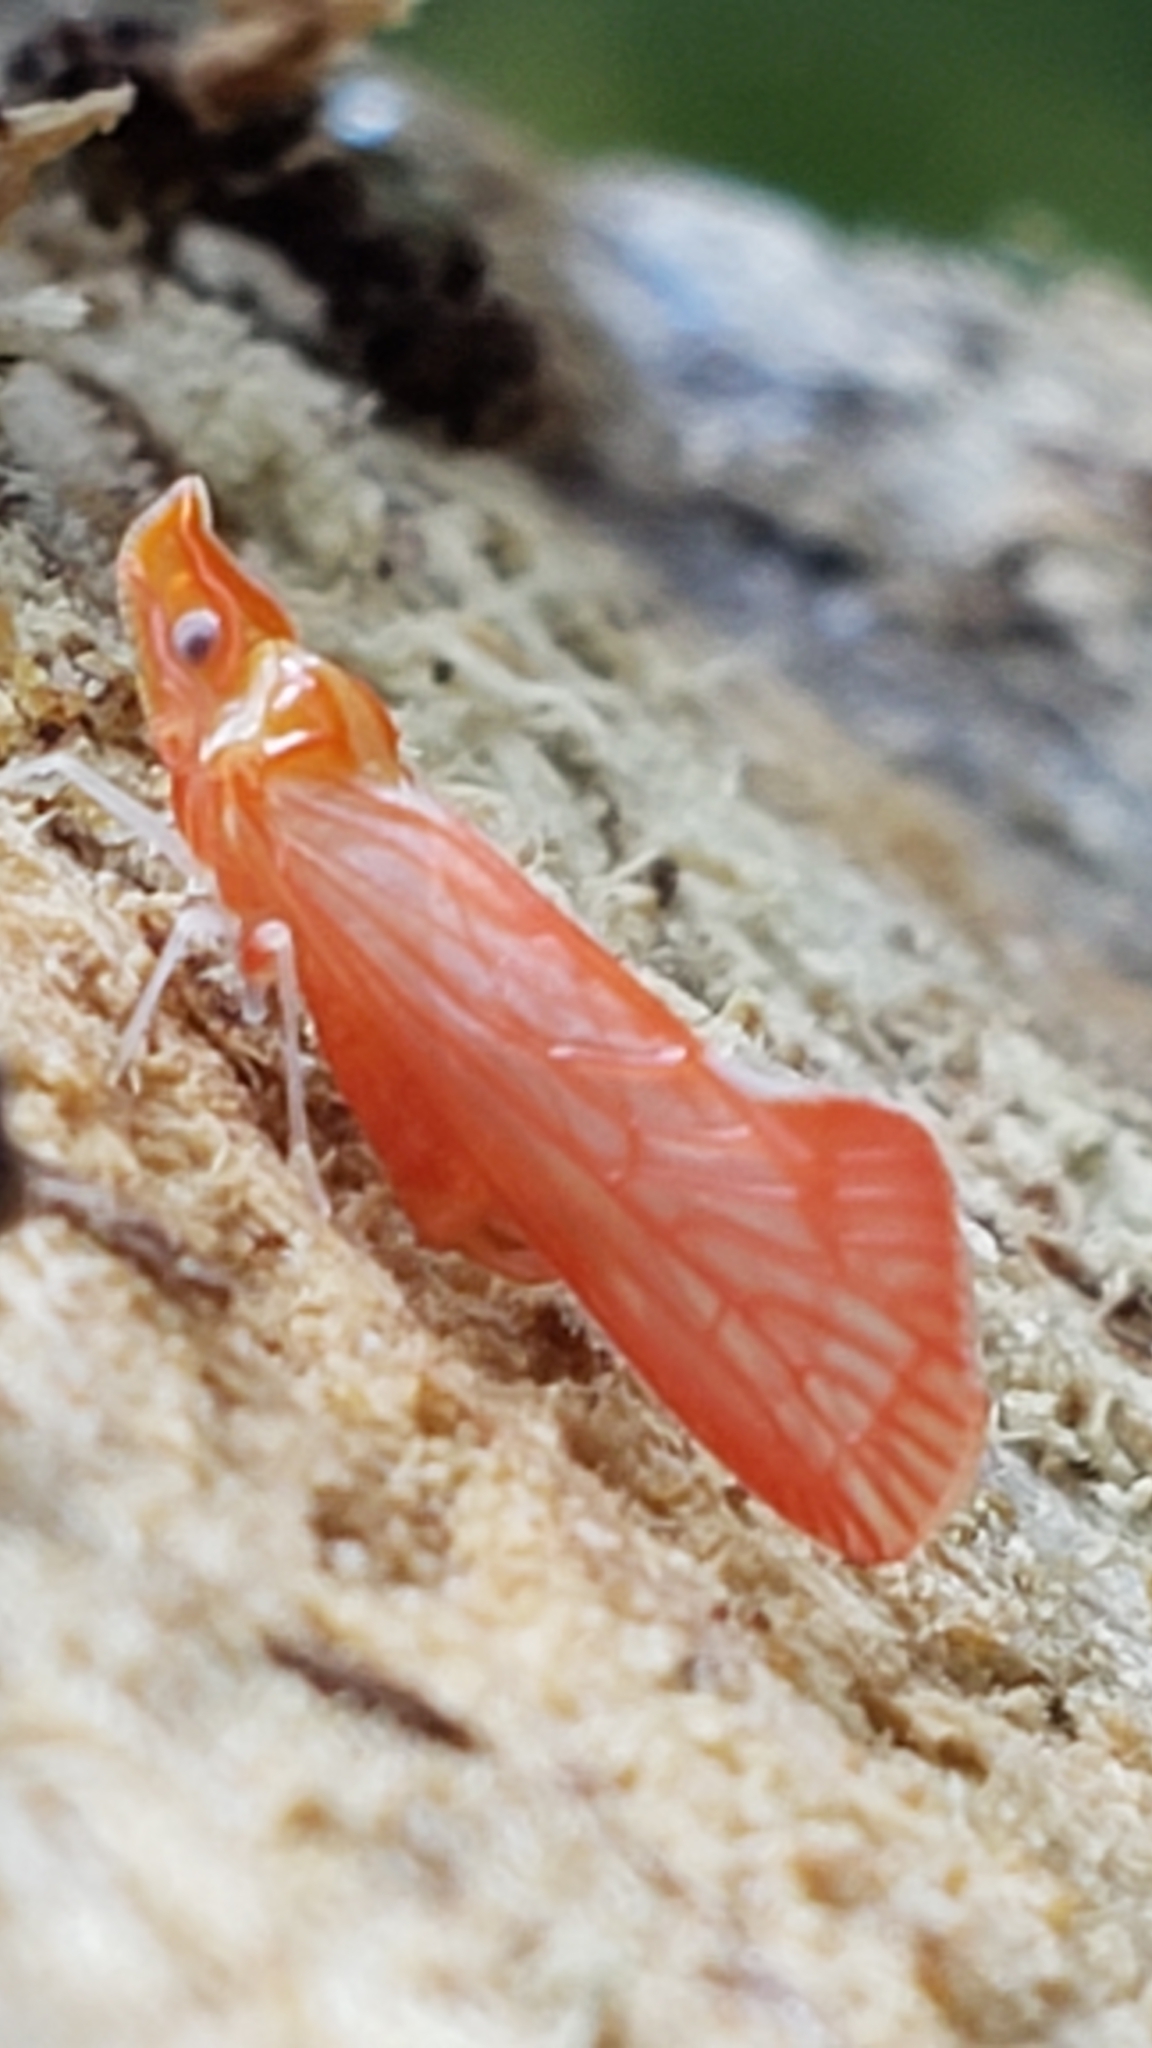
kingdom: Animalia
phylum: Arthropoda
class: Insecta
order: Hemiptera
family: Derbidae
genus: Apache
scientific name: Apache degeeri
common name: Red-fanned planthopper
